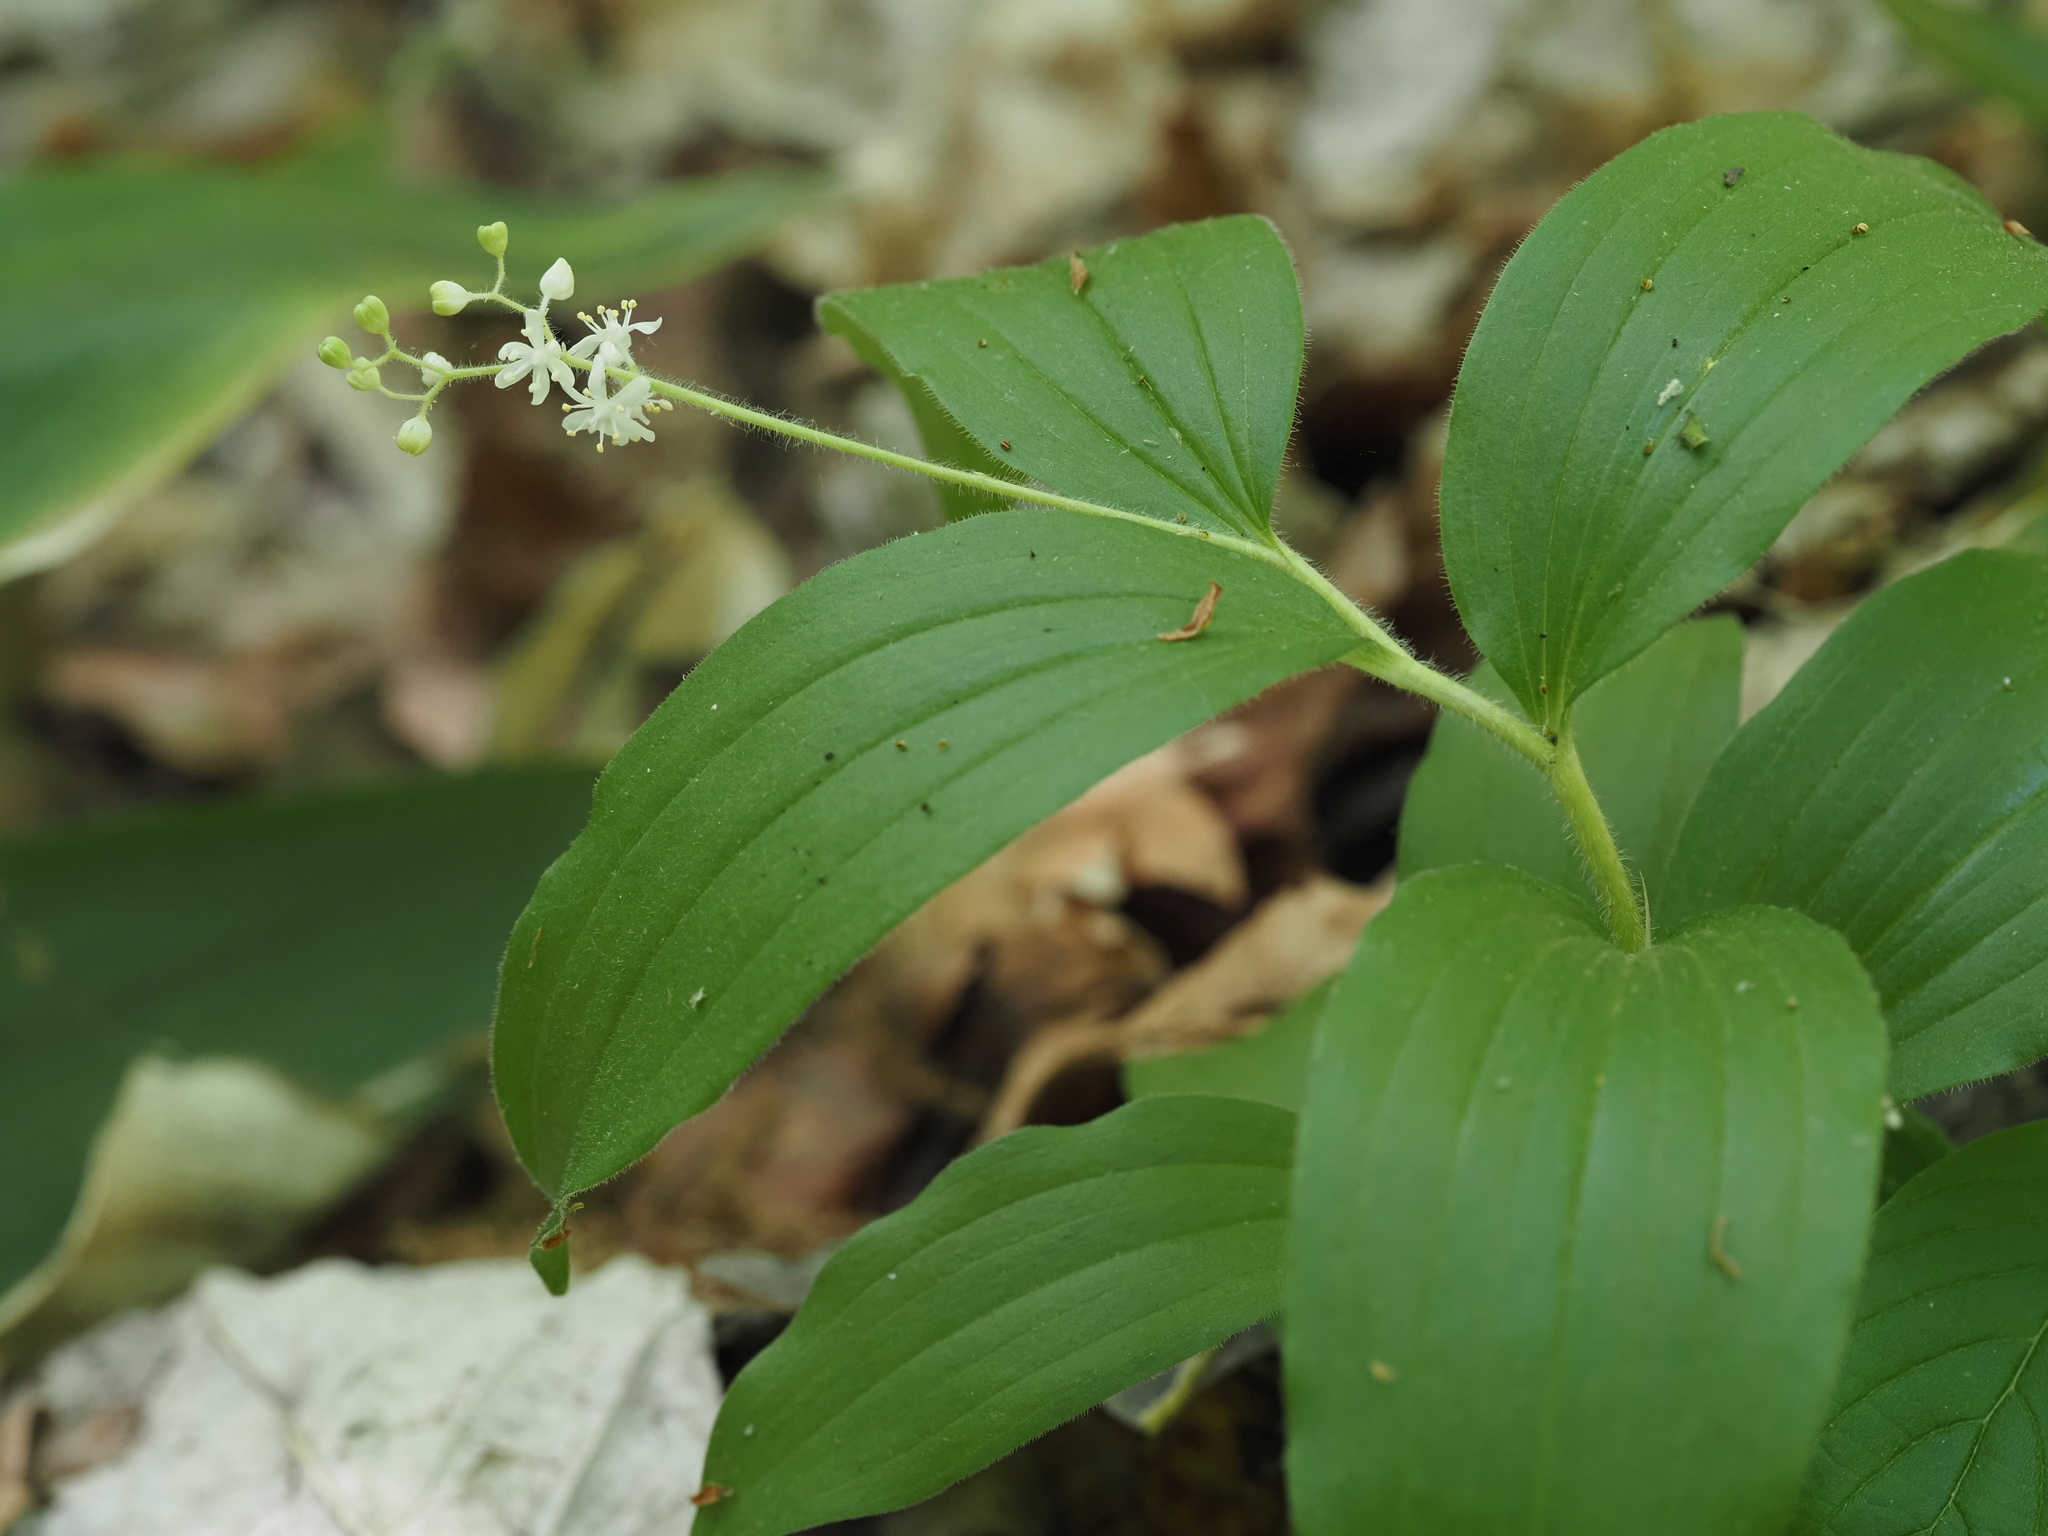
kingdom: Plantae
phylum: Tracheophyta
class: Liliopsida
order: Asparagales
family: Asparagaceae
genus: Maianthemum
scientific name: Maianthemum japonicum
